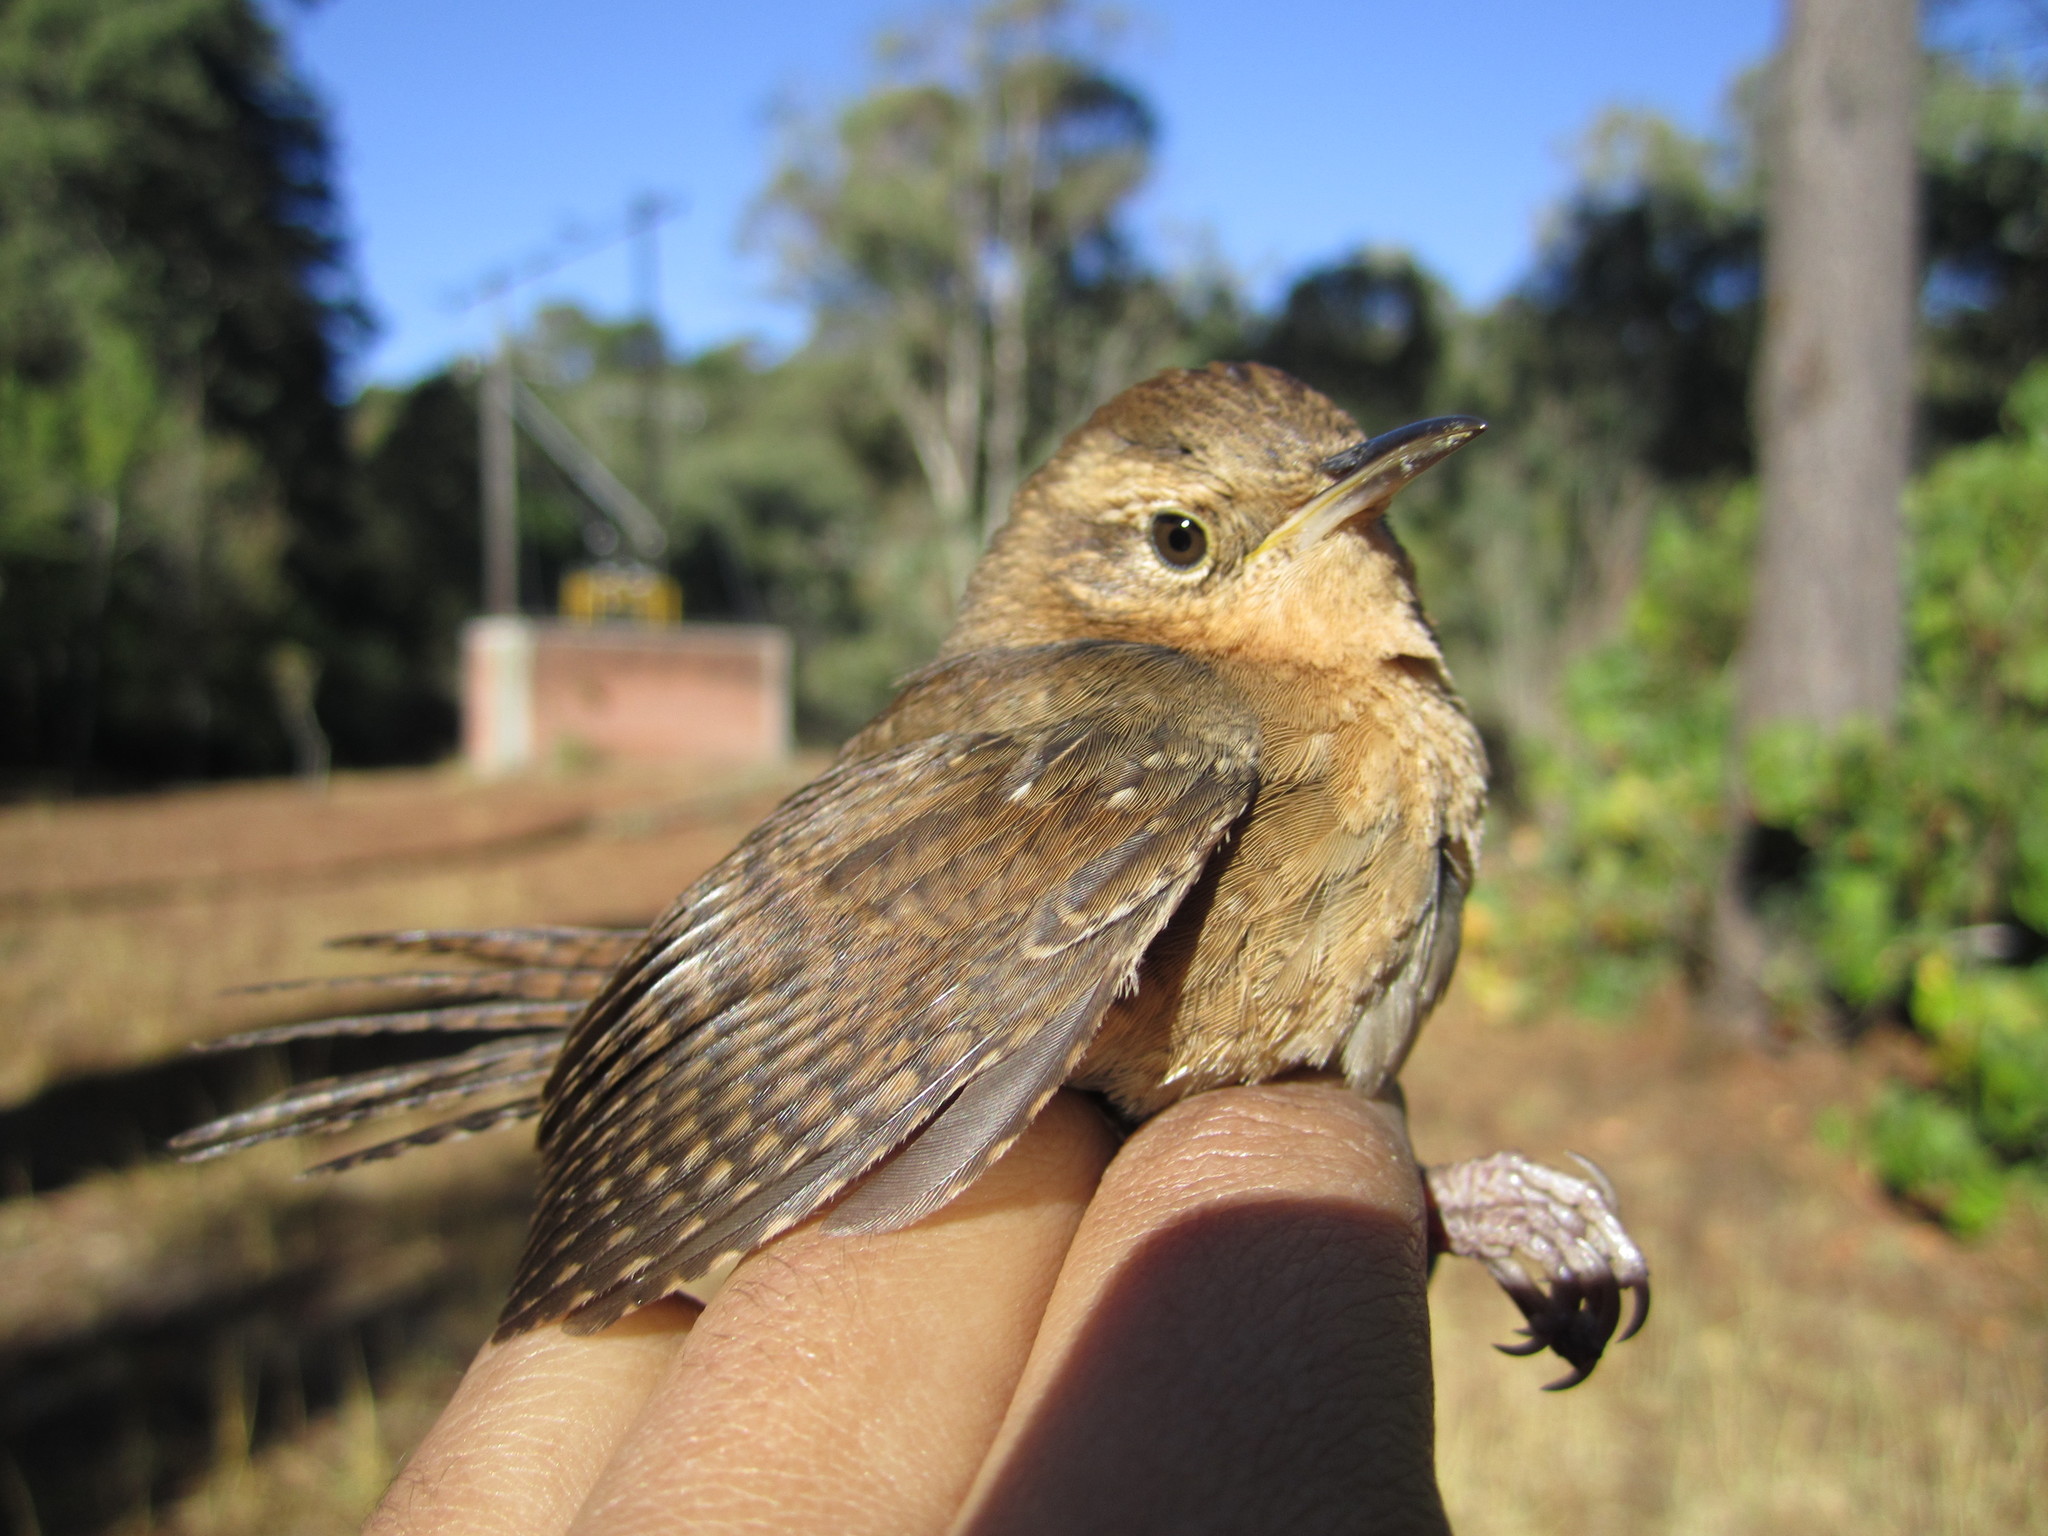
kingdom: Animalia
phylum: Chordata
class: Aves
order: Passeriformes
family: Troglodytidae
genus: Troglodytes
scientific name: Troglodytes aedon
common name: House wren
